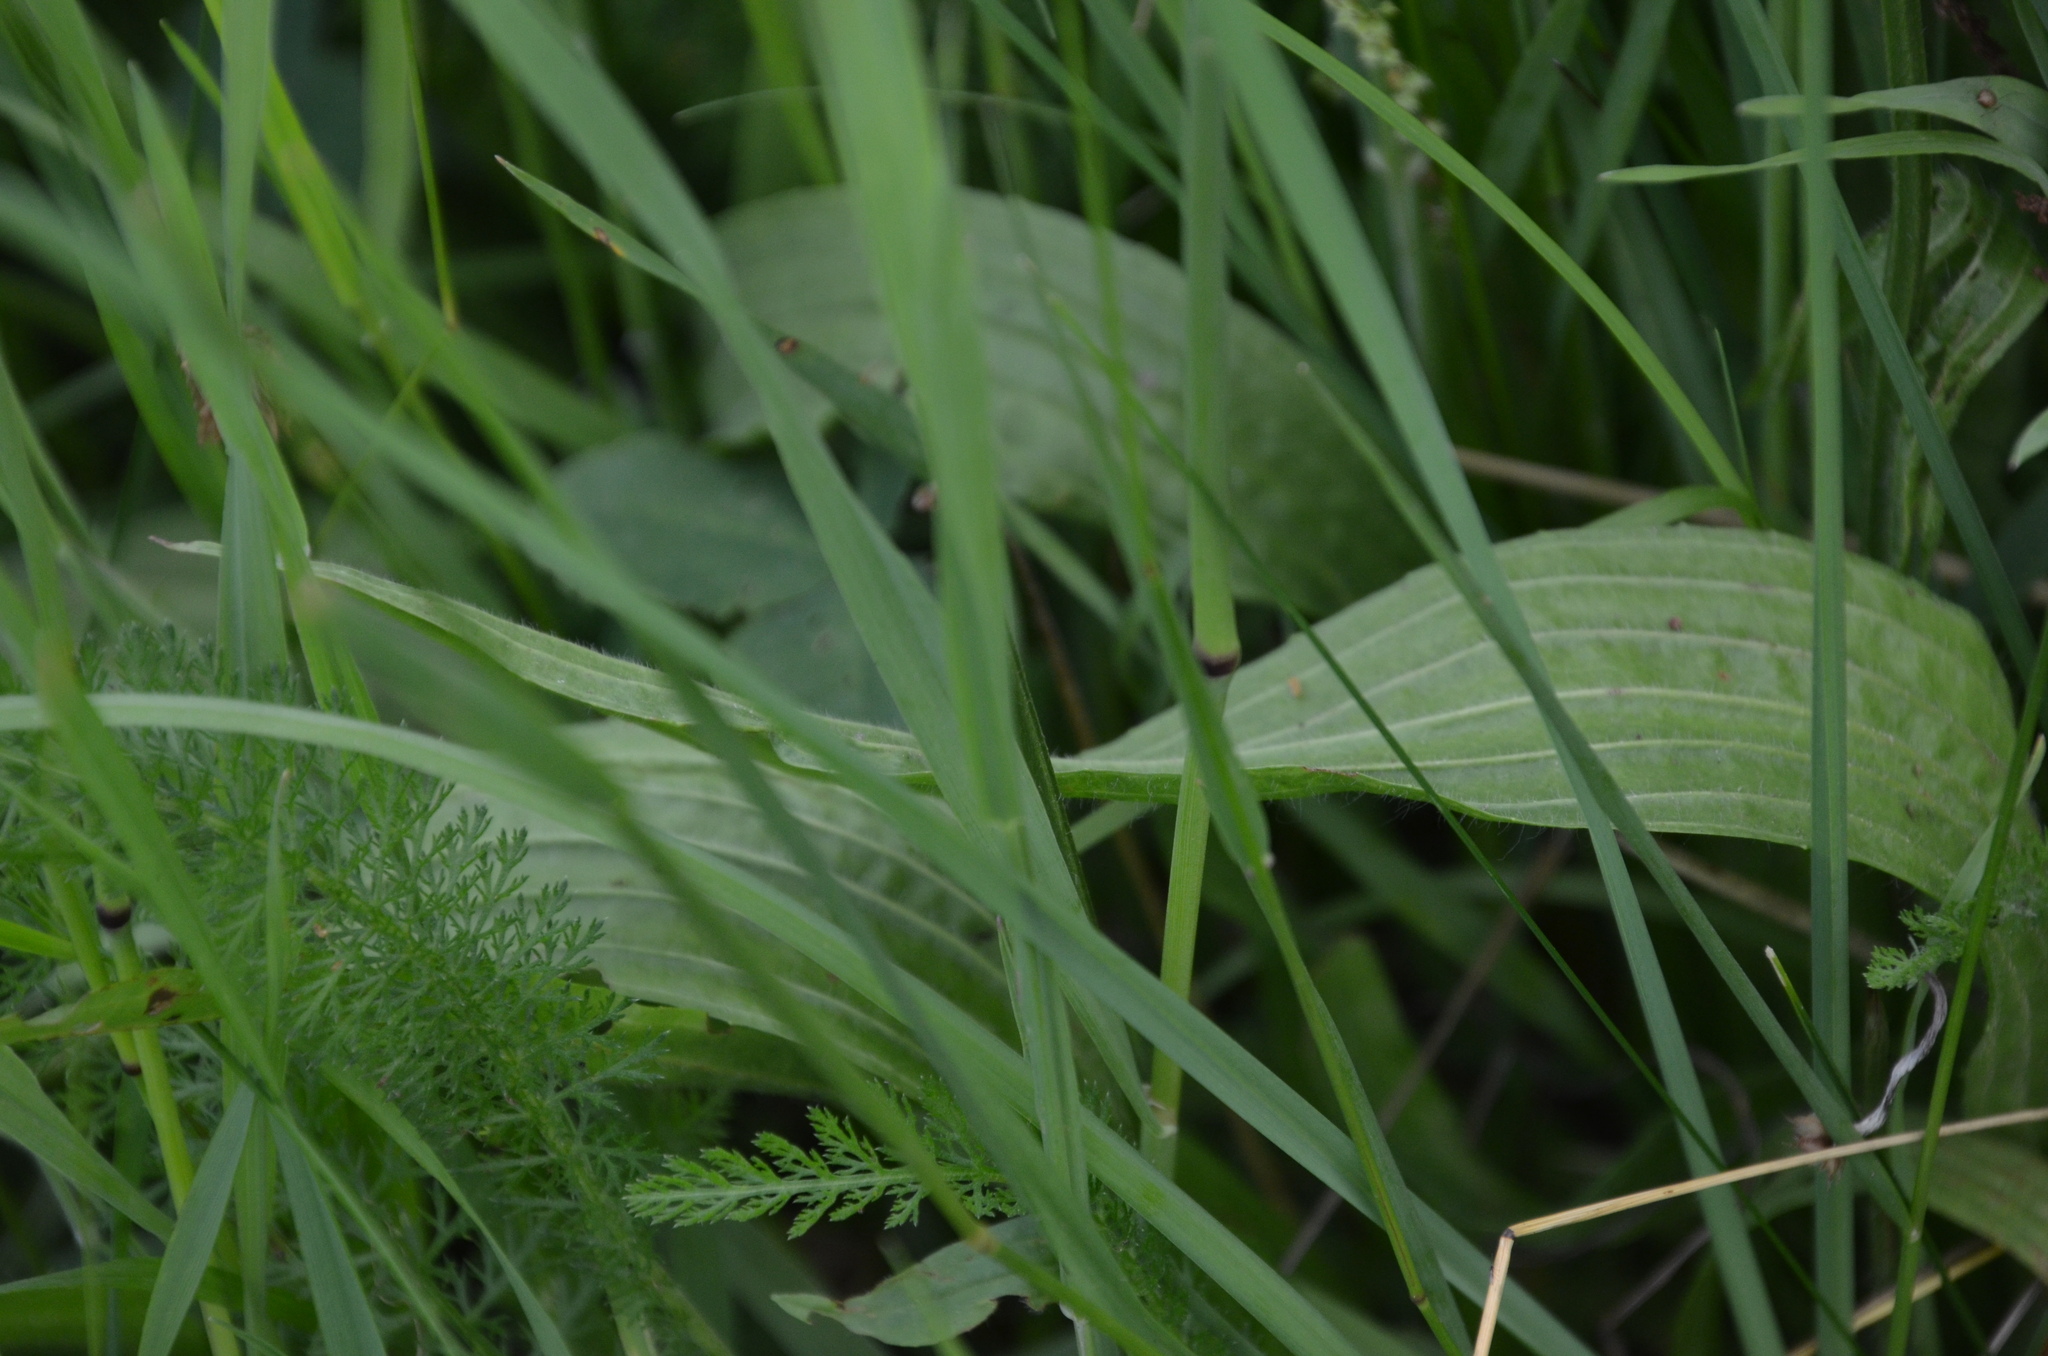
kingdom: Plantae
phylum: Tracheophyta
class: Magnoliopsida
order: Lamiales
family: Plantaginaceae
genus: Plantago
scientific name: Plantago lanceolata
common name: Ribwort plantain
